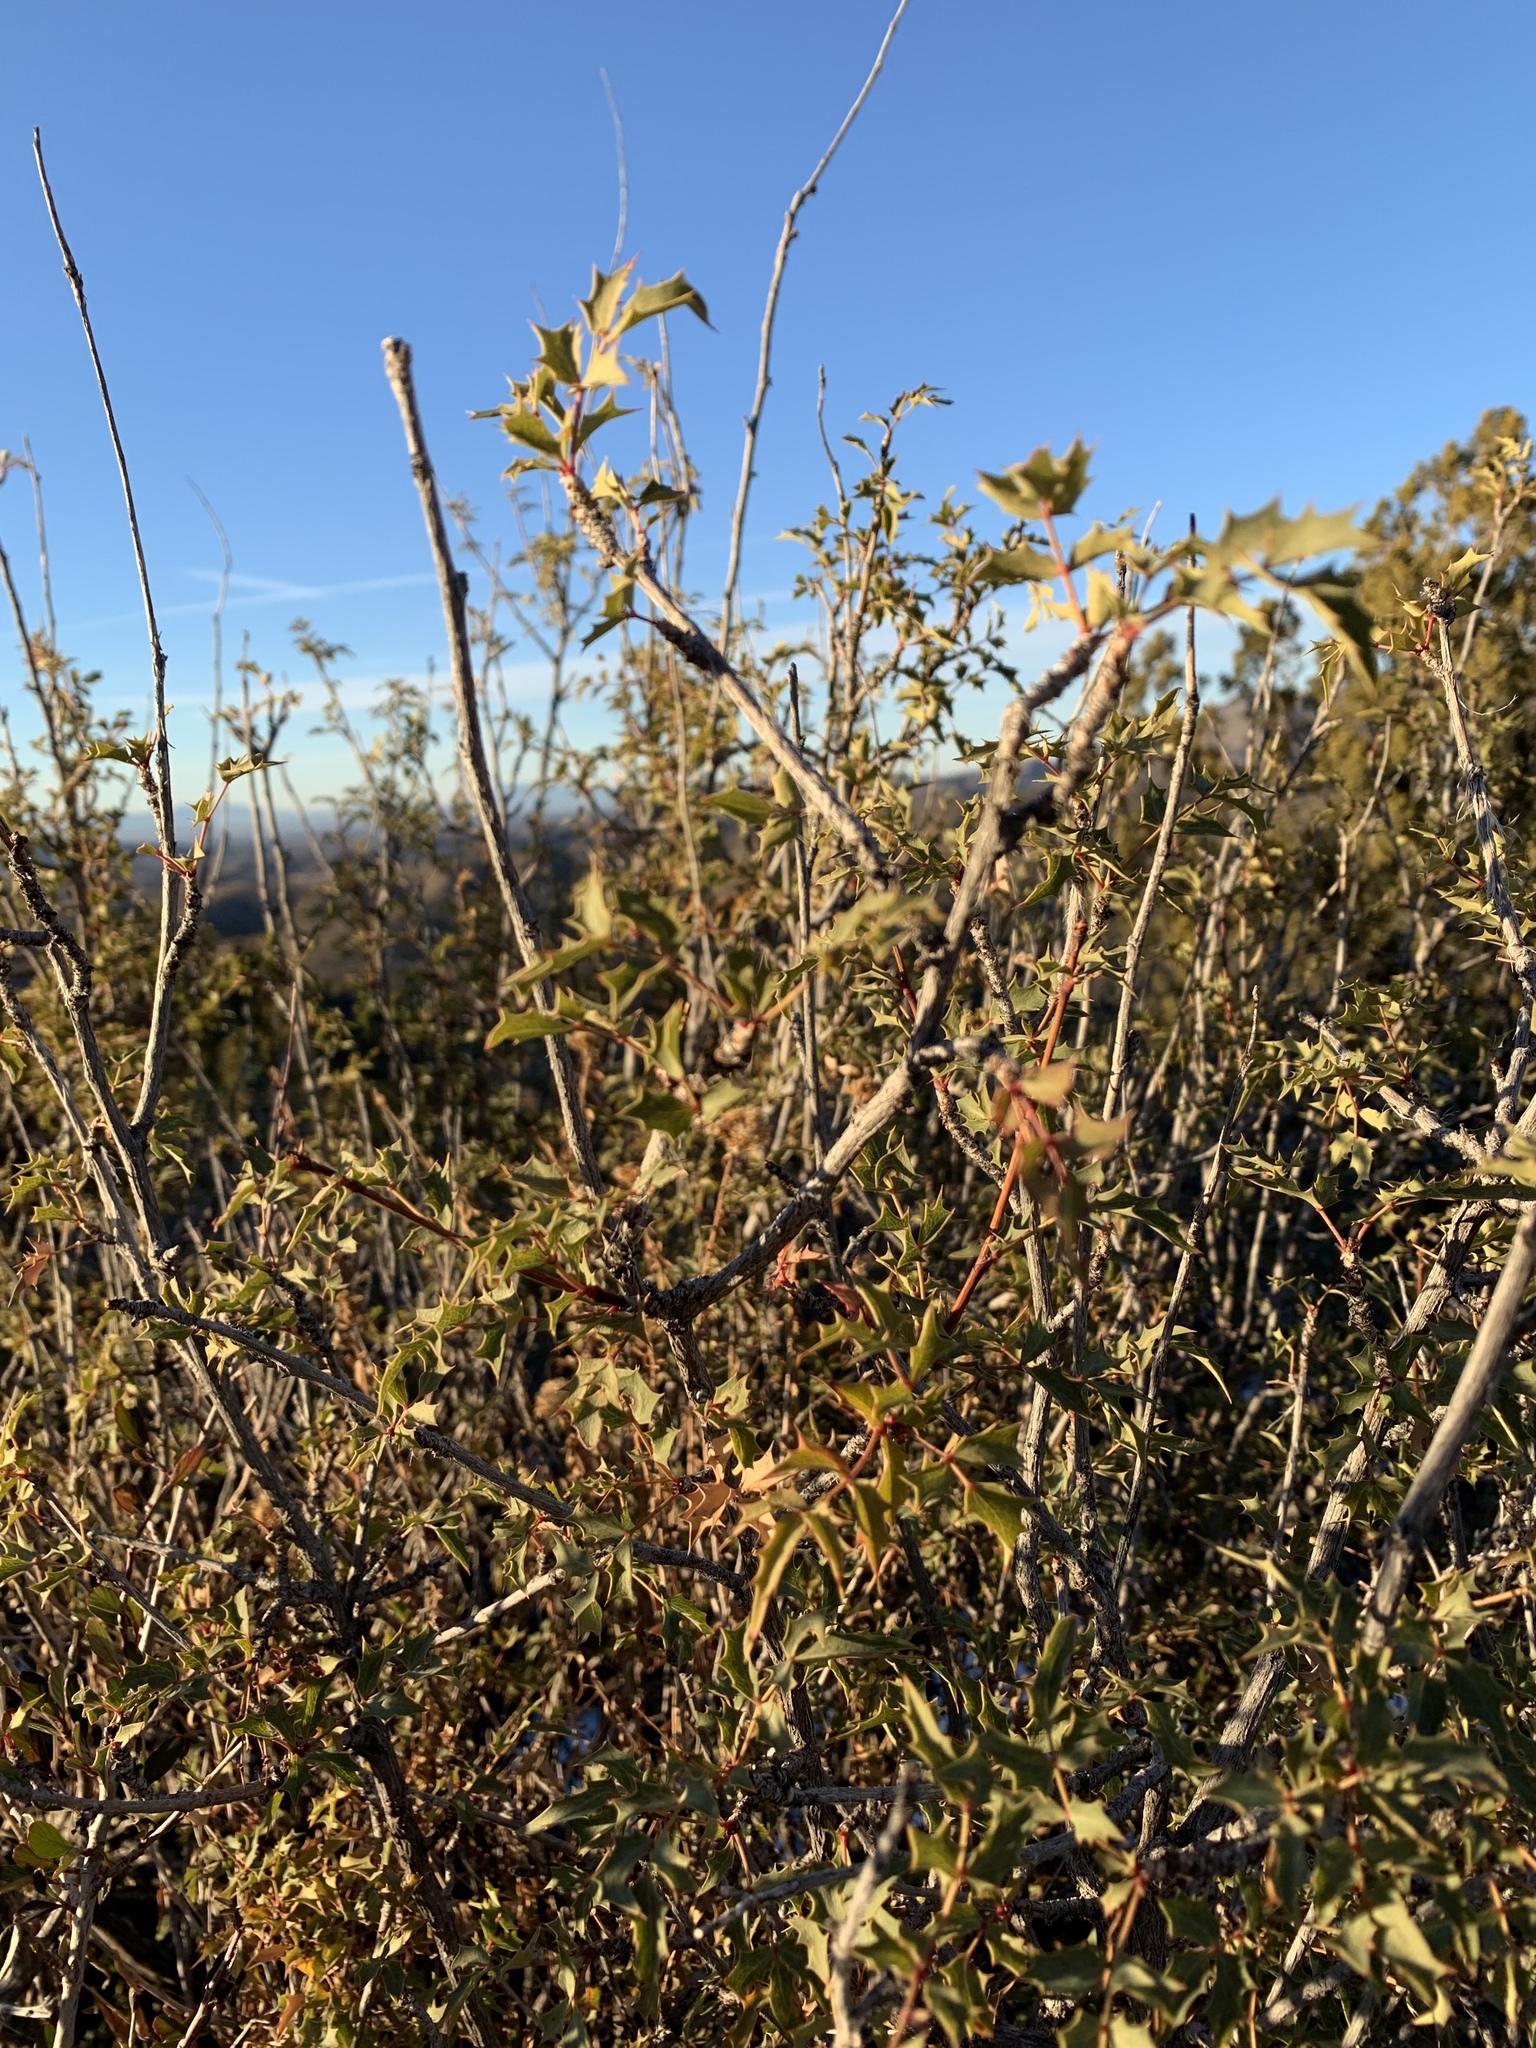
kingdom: Plantae
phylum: Tracheophyta
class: Magnoliopsida
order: Ranunculales
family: Berberidaceae
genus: Alloberberis
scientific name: Alloberberis haematocarpa
